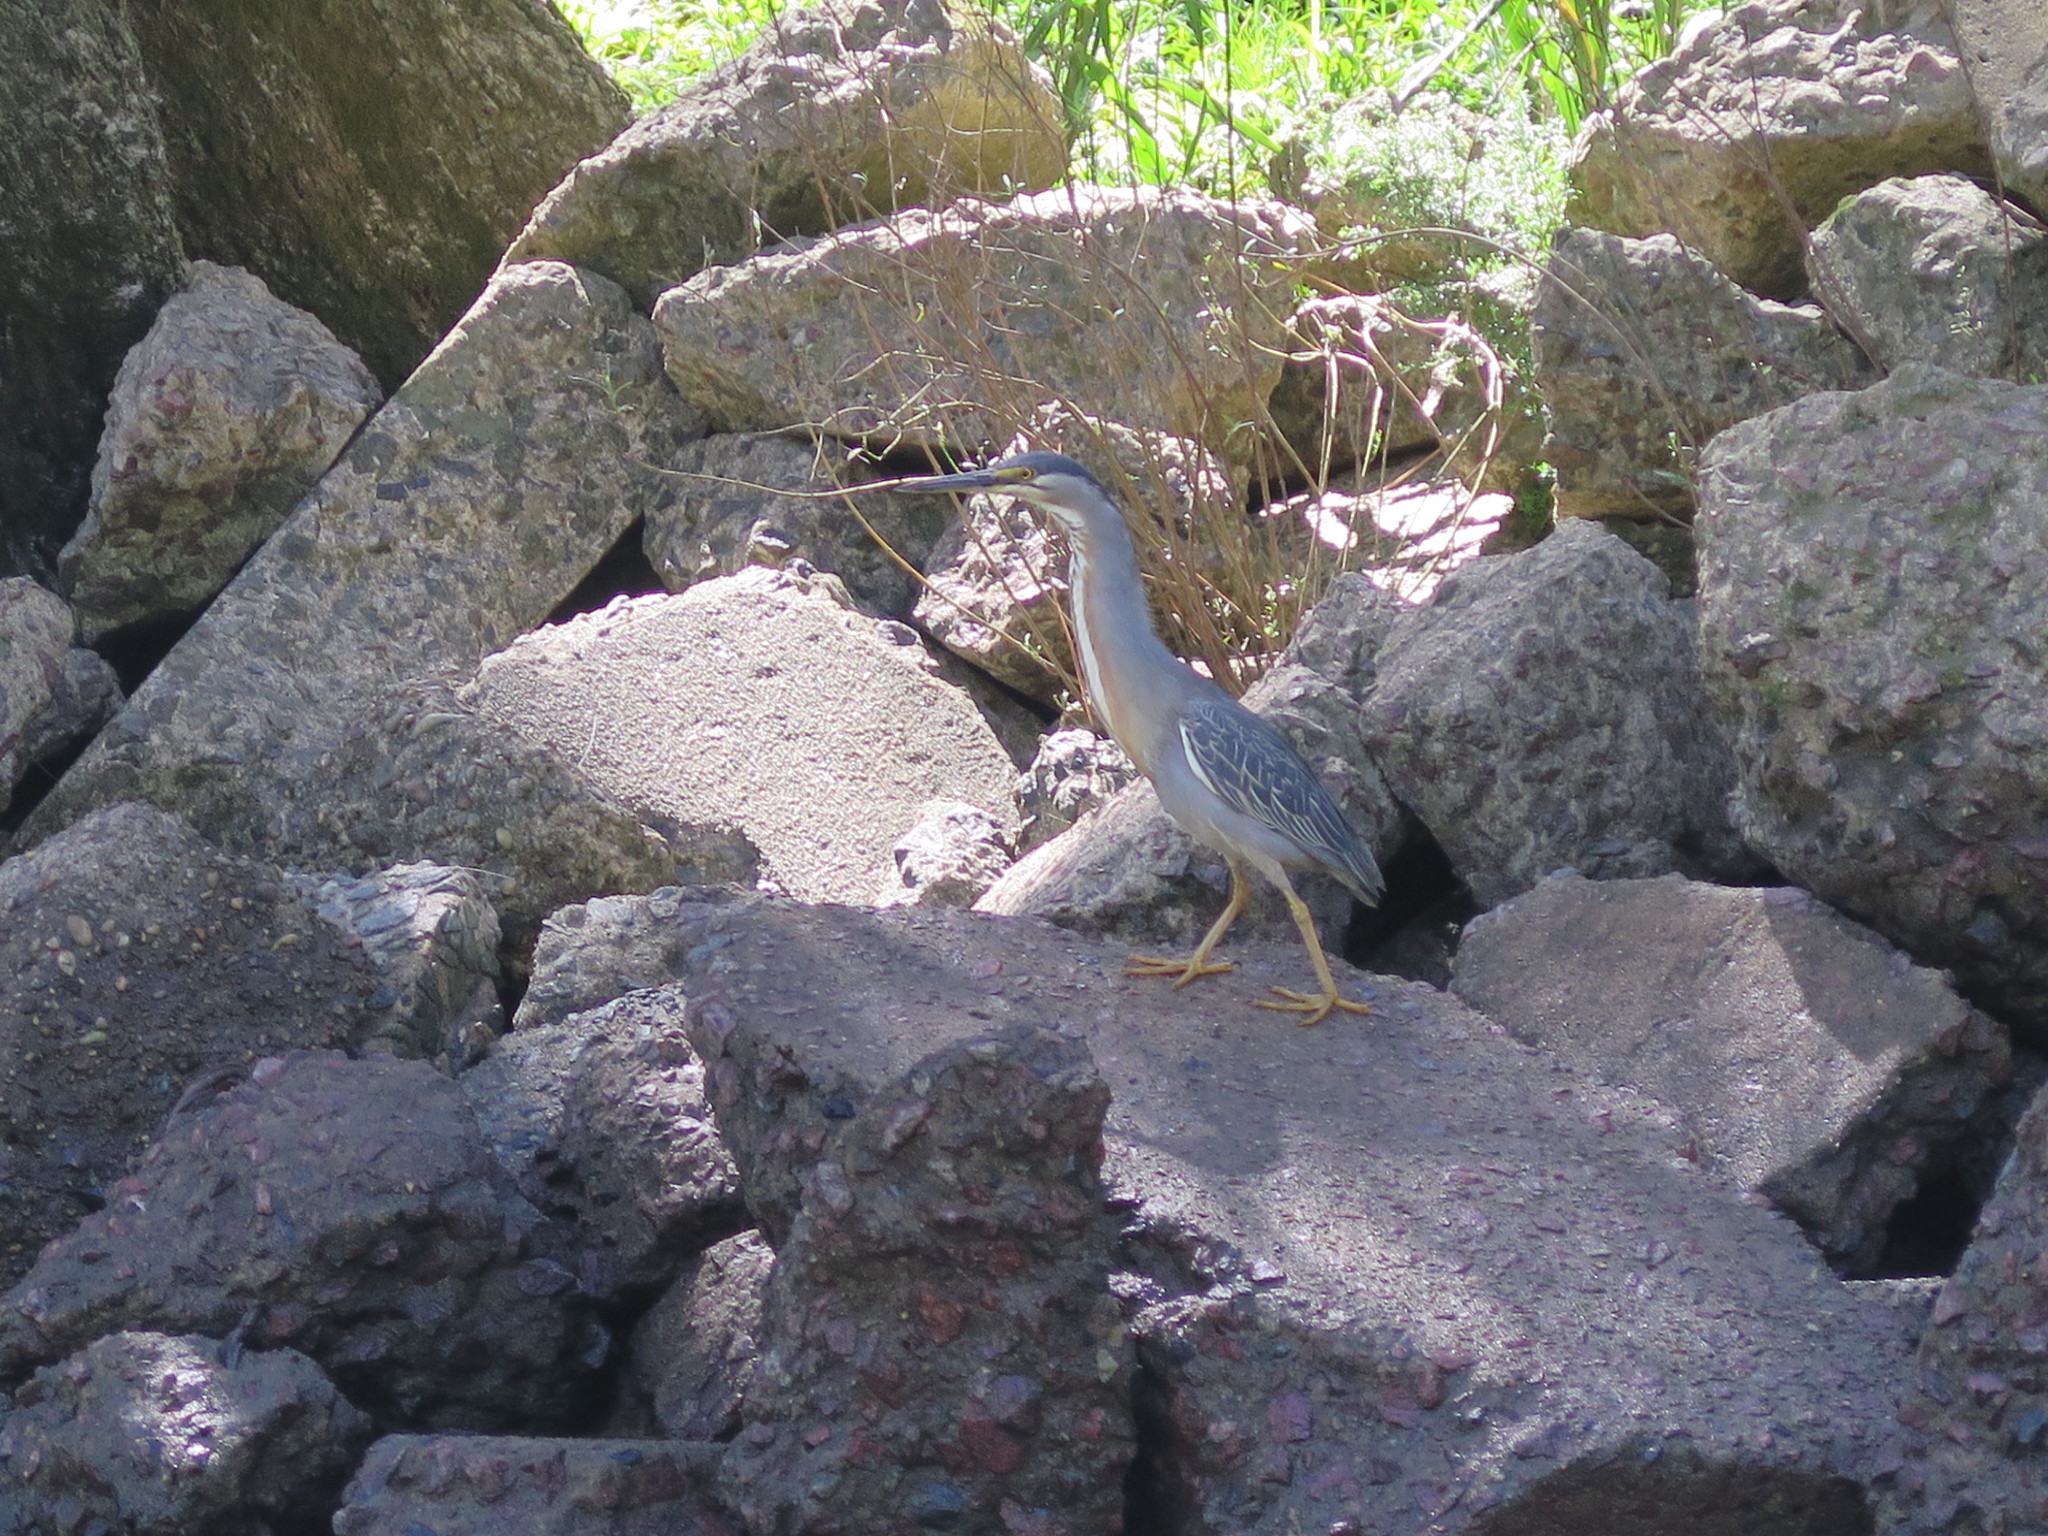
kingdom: Animalia
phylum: Chordata
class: Aves
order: Pelecaniformes
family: Ardeidae
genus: Butorides
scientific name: Butorides striata
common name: Striated heron
